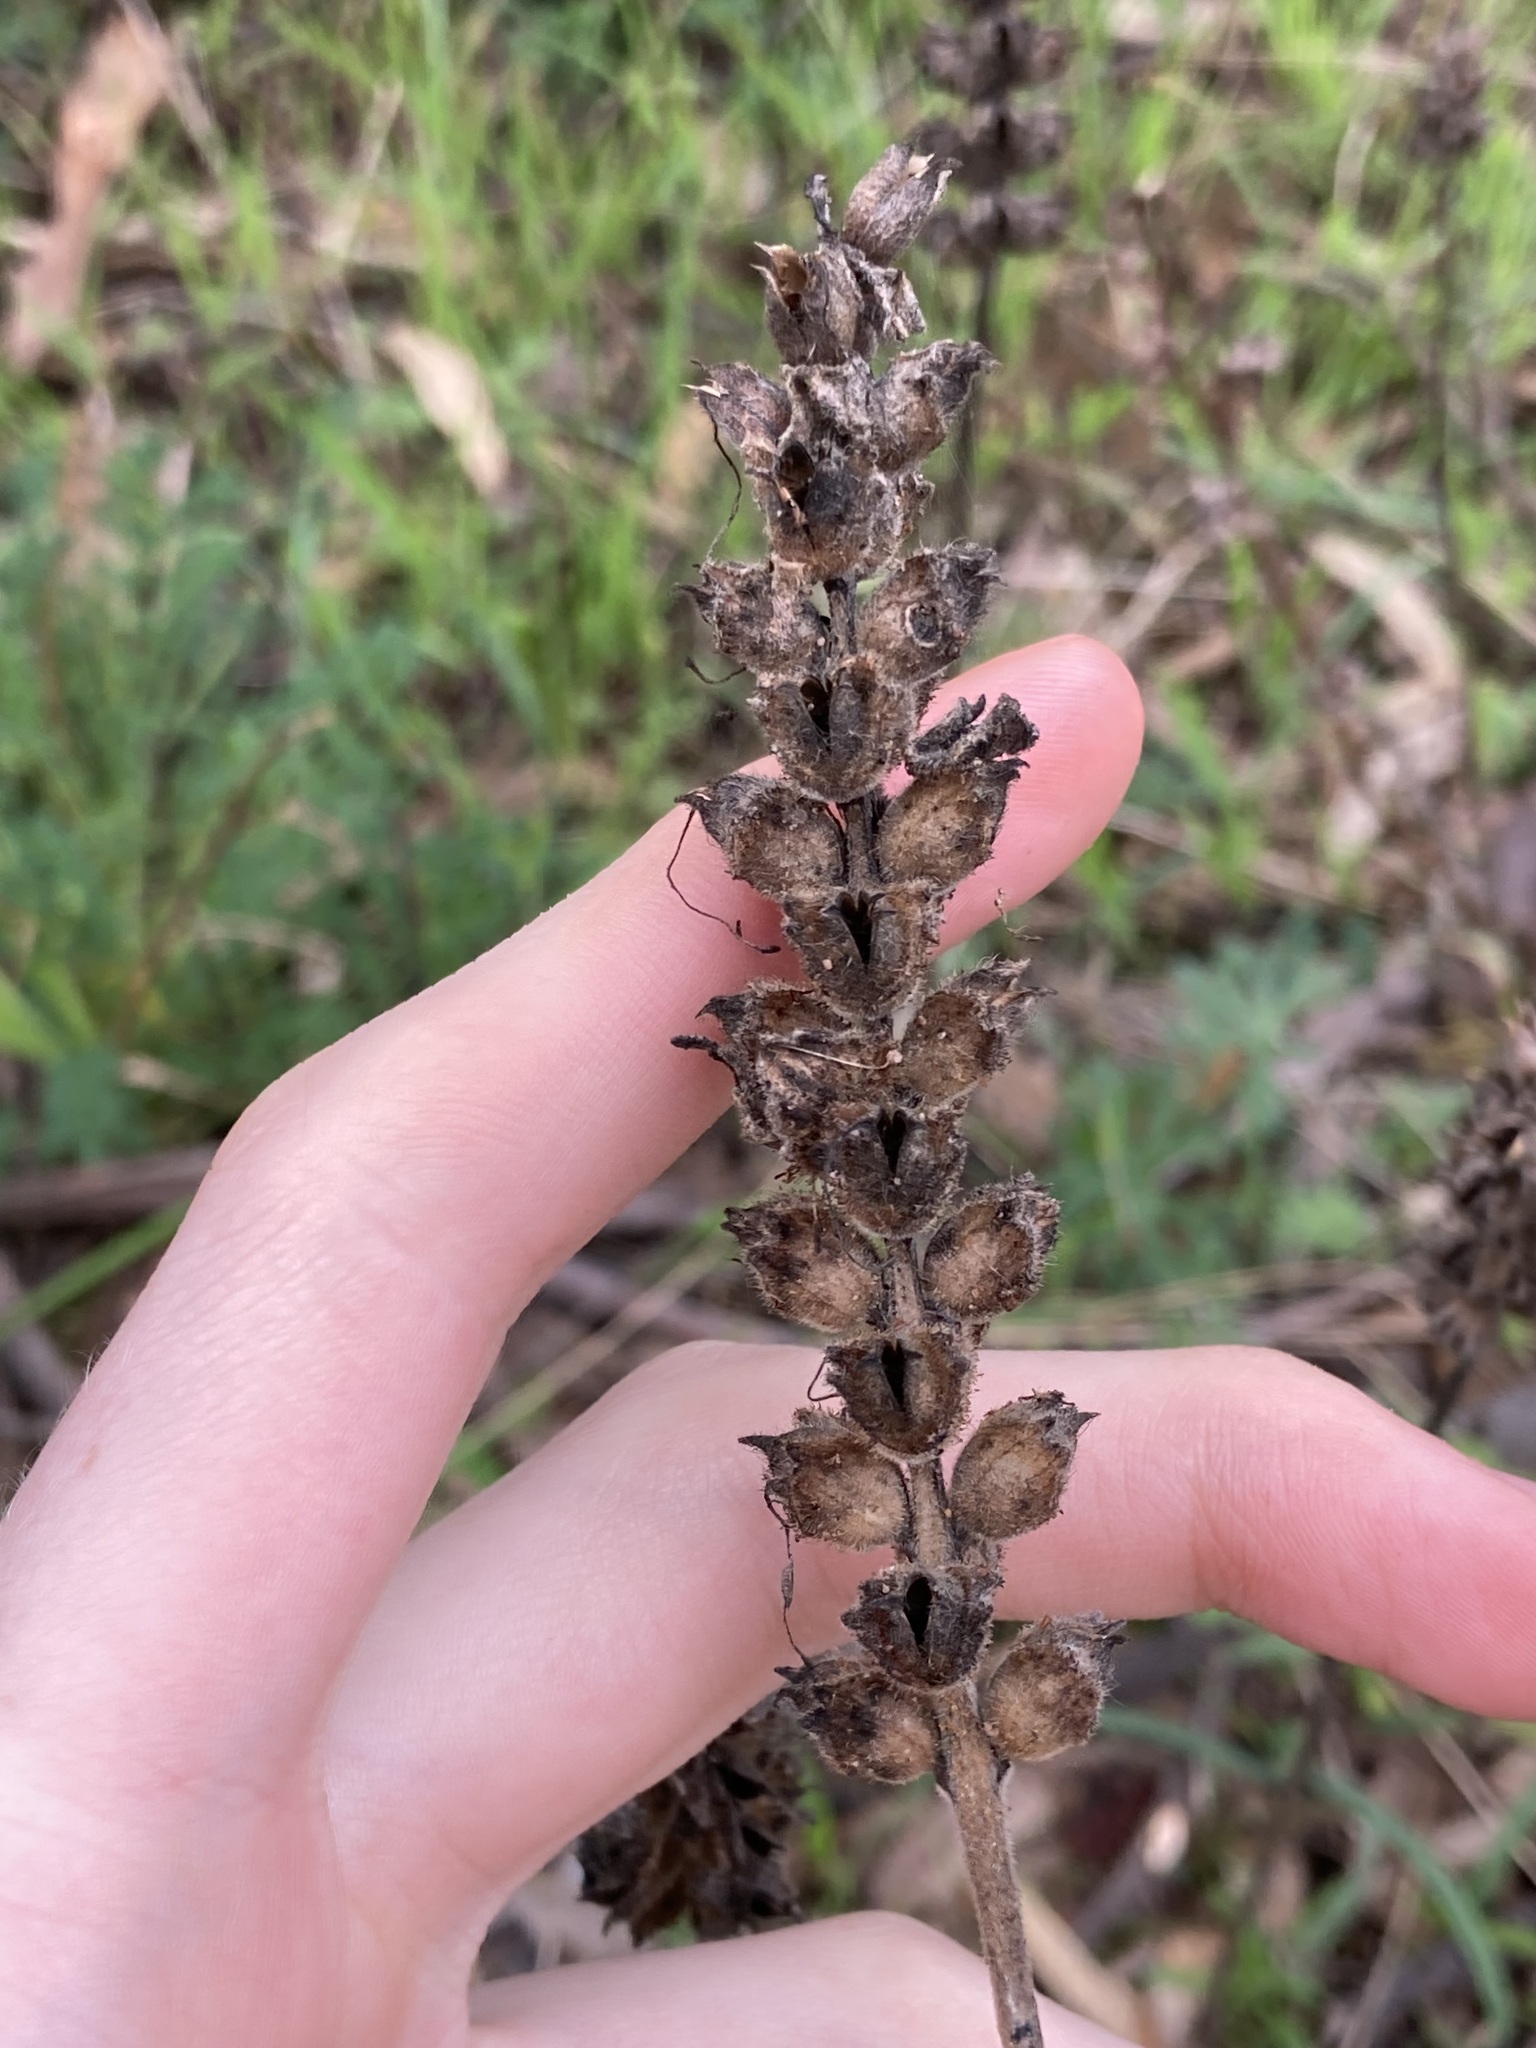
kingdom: Plantae
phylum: Tracheophyta
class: Magnoliopsida
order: Lamiales
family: Orobanchaceae
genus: Bellardia
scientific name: Bellardia trixago
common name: Mediterranean lineseed
